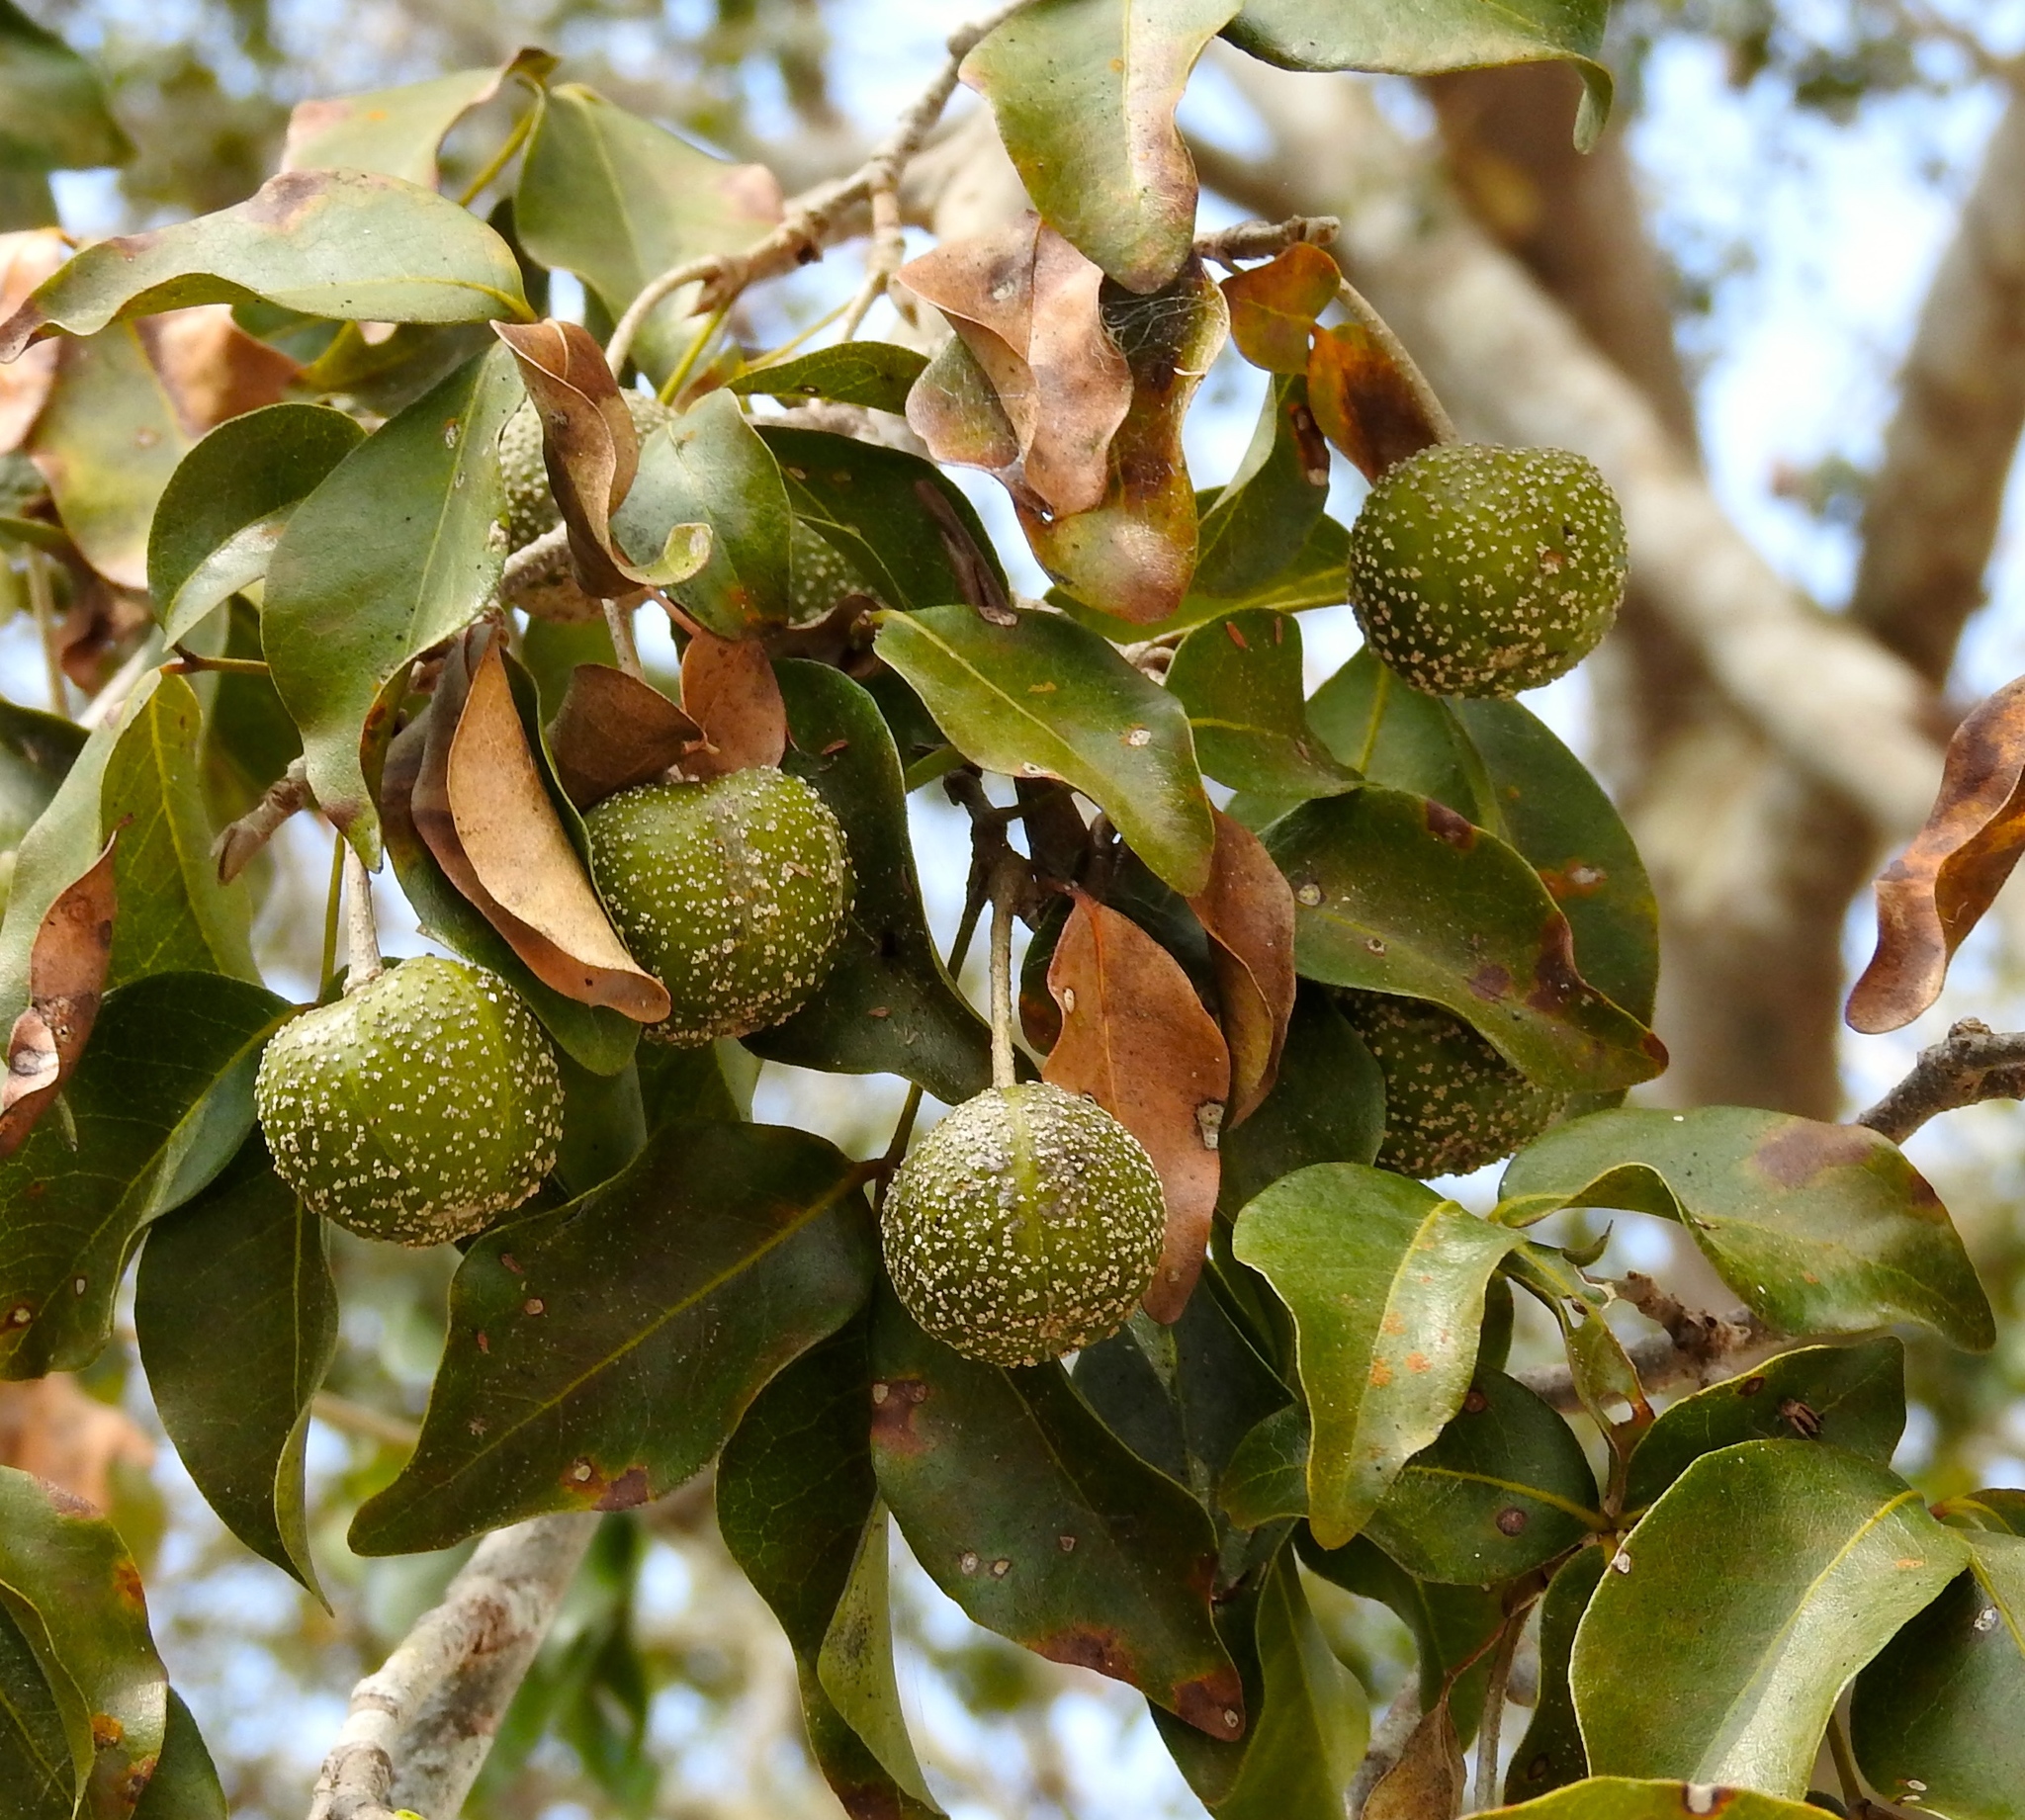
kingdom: Plantae
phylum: Tracheophyta
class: Magnoliopsida
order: Malpighiales
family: Picrodendraceae
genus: Piranhea
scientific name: Piranhea mexicana
